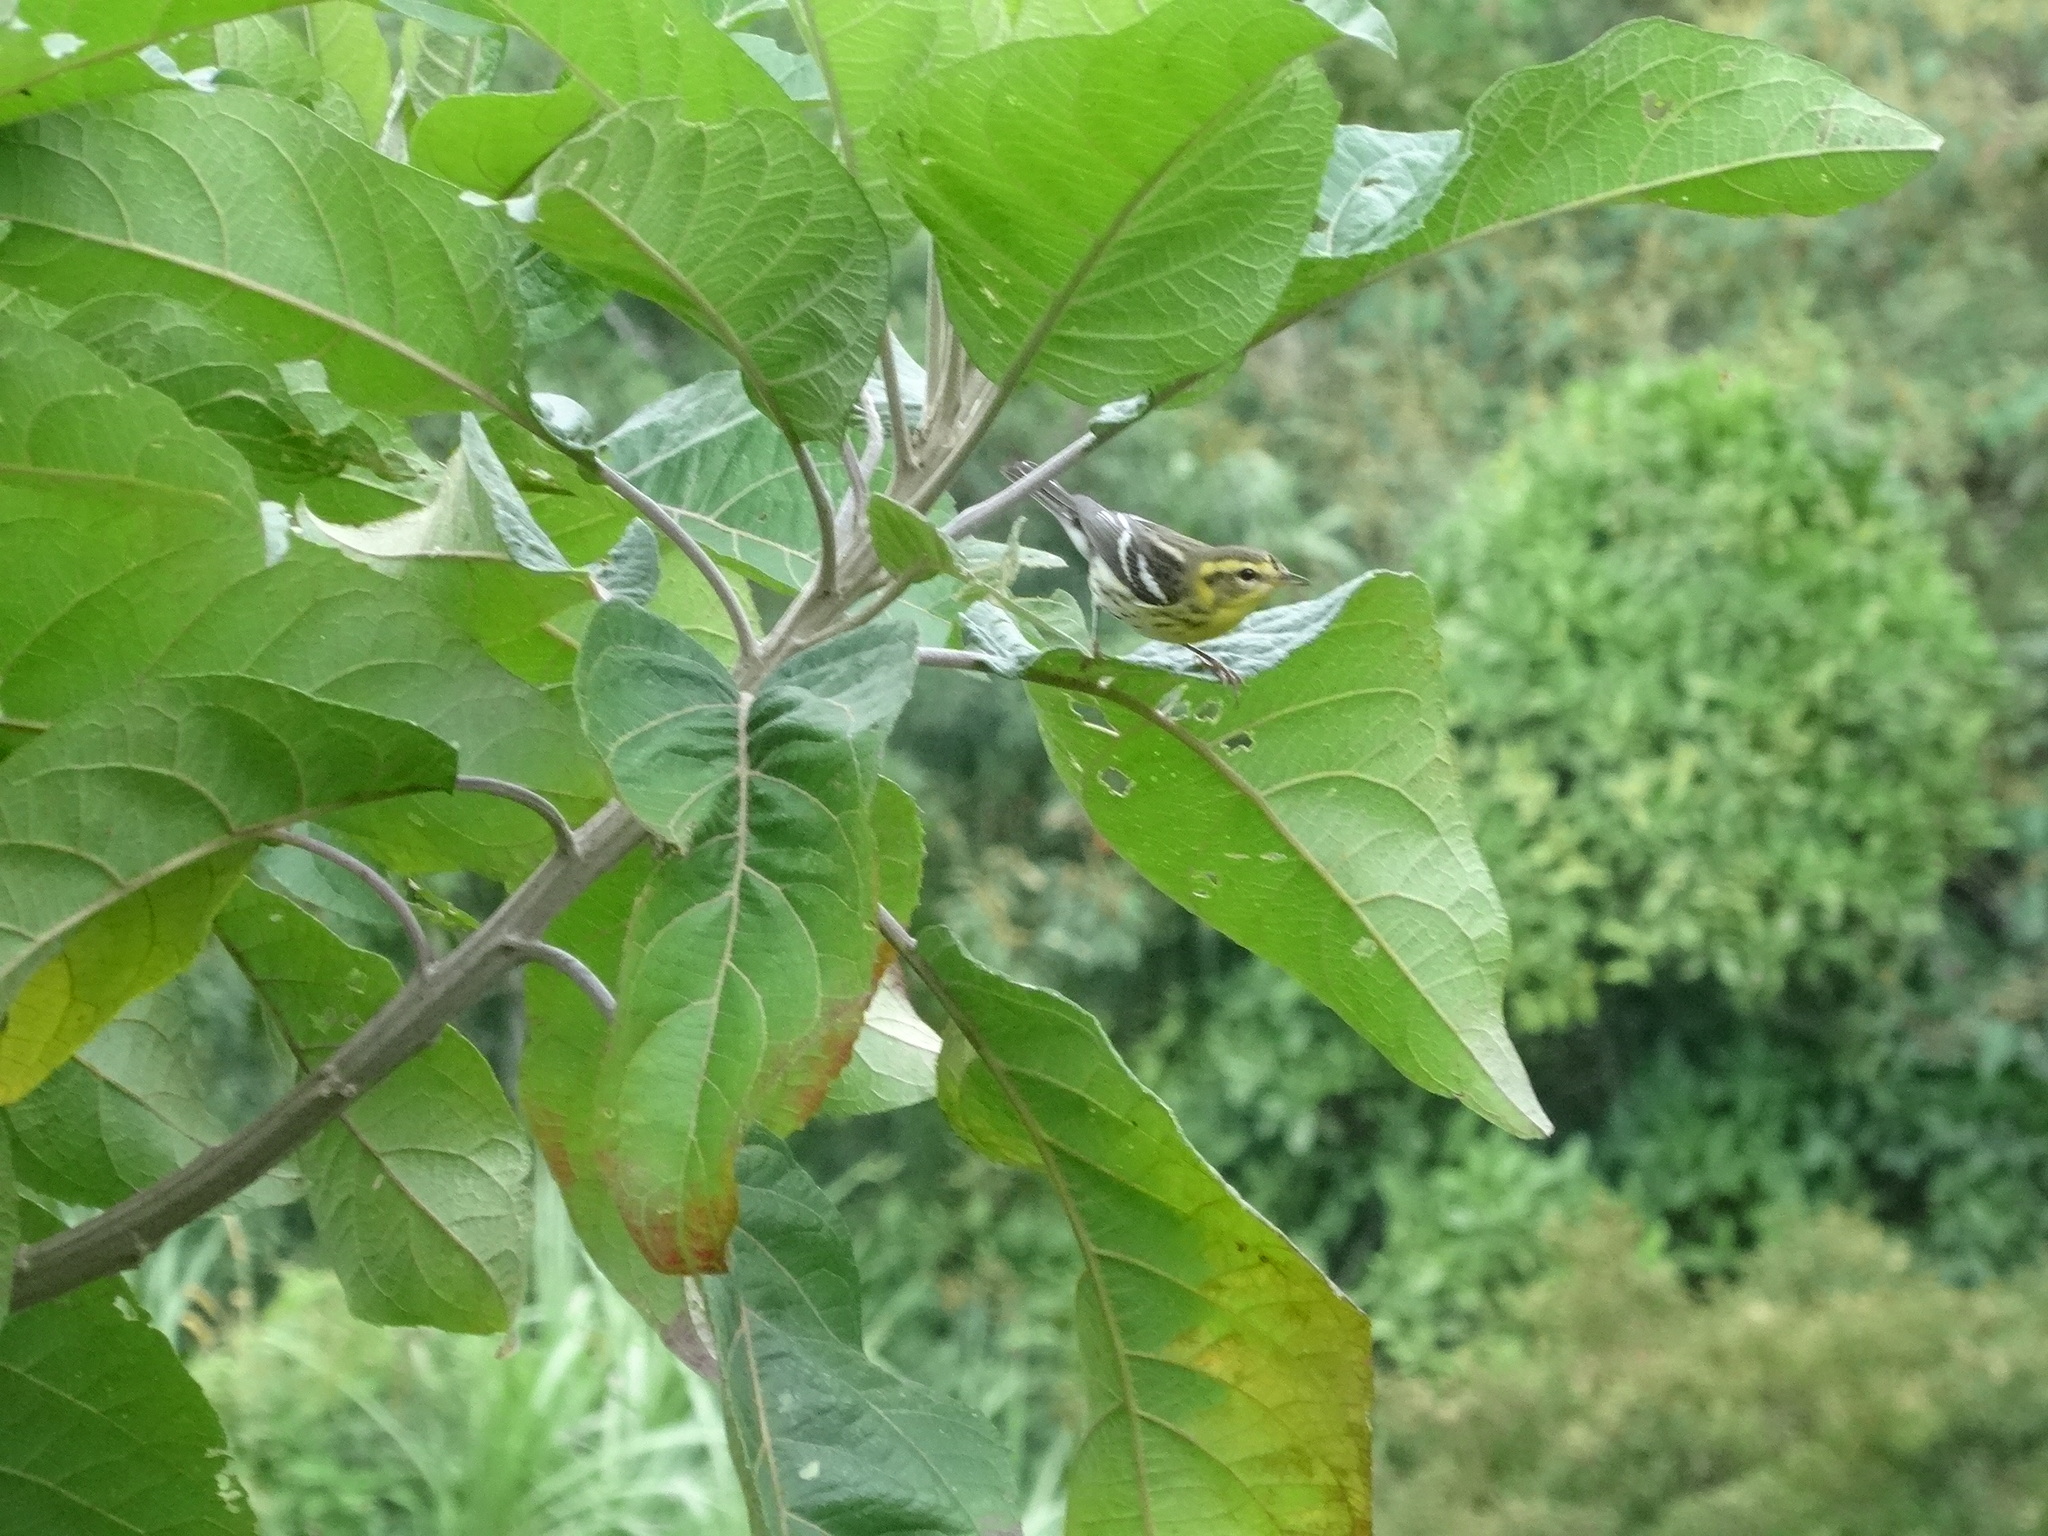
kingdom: Animalia
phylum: Chordata
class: Aves
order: Passeriformes
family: Parulidae
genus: Setophaga
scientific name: Setophaga fusca
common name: Blackburnian warbler
